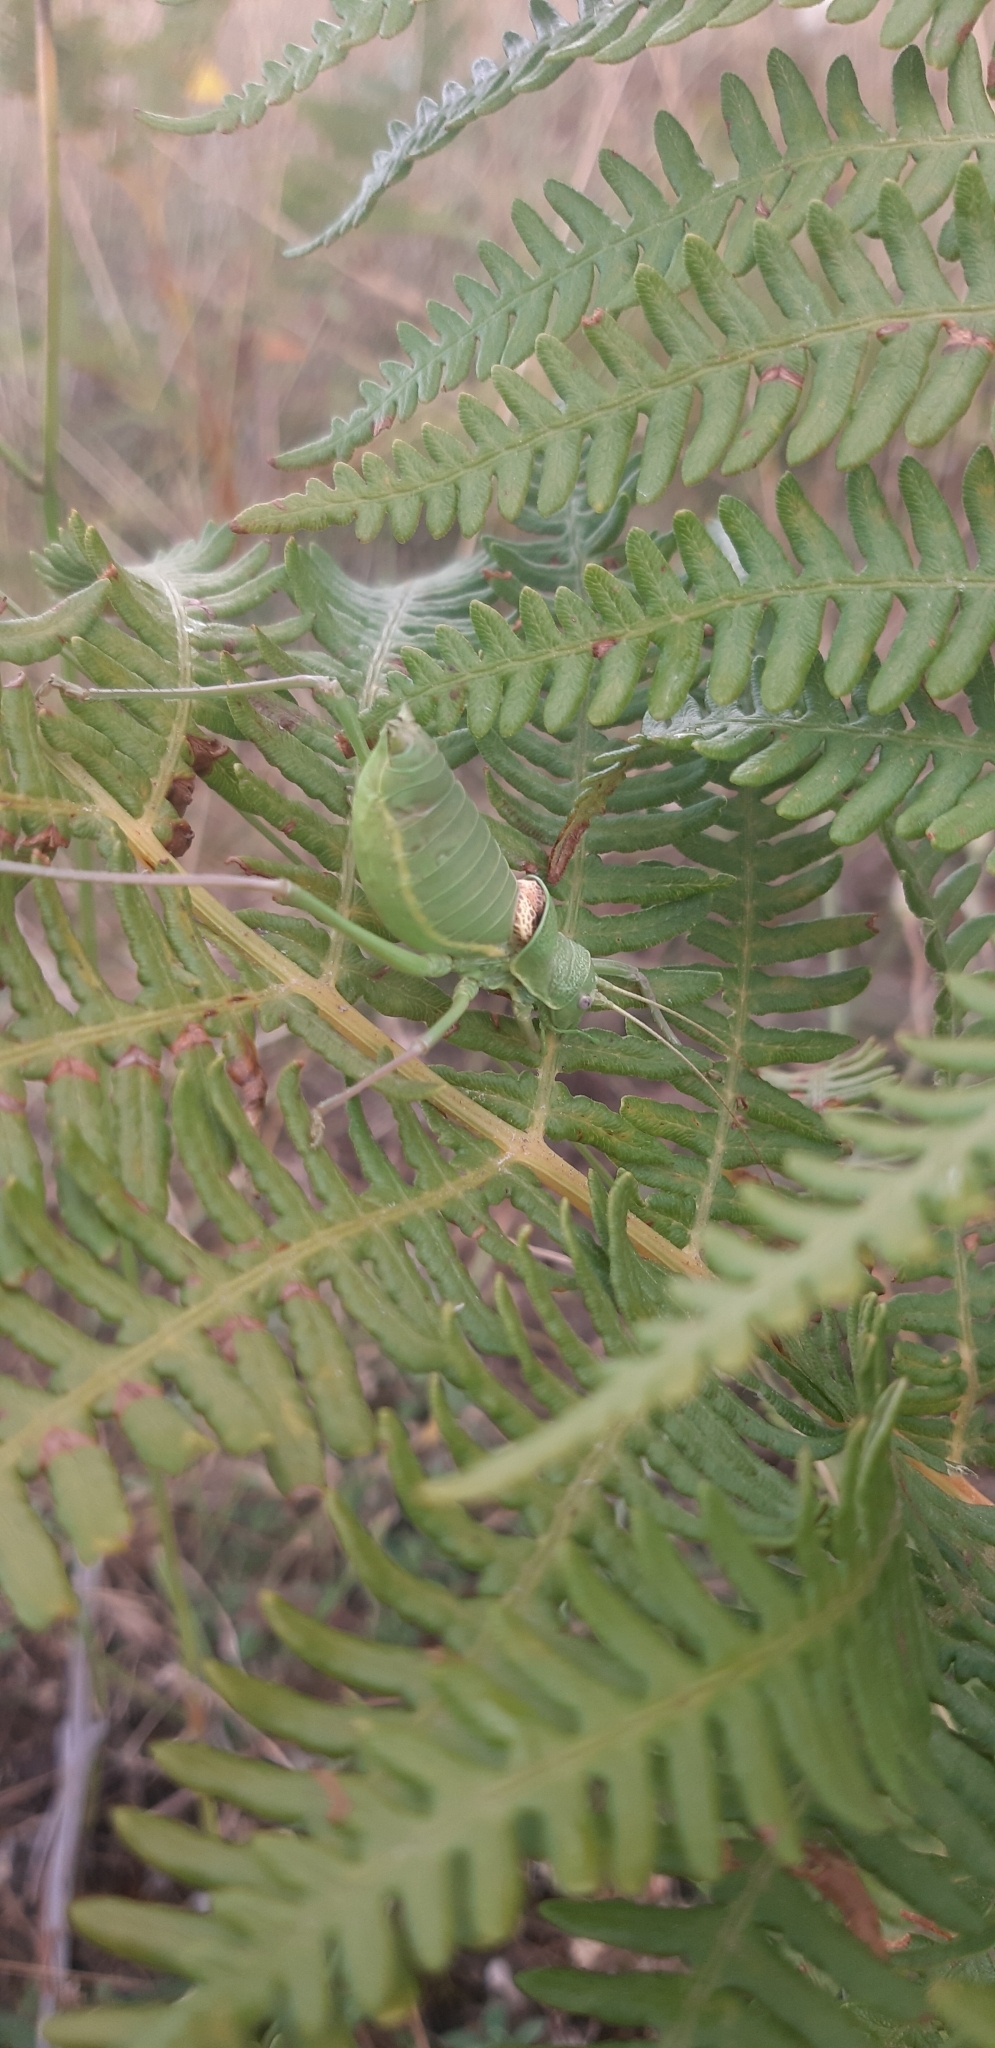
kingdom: Animalia
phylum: Arthropoda
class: Insecta
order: Orthoptera
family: Tettigoniidae
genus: Ephippiger
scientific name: Ephippiger cavannai
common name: Cavanna's saddle bush-cricket
